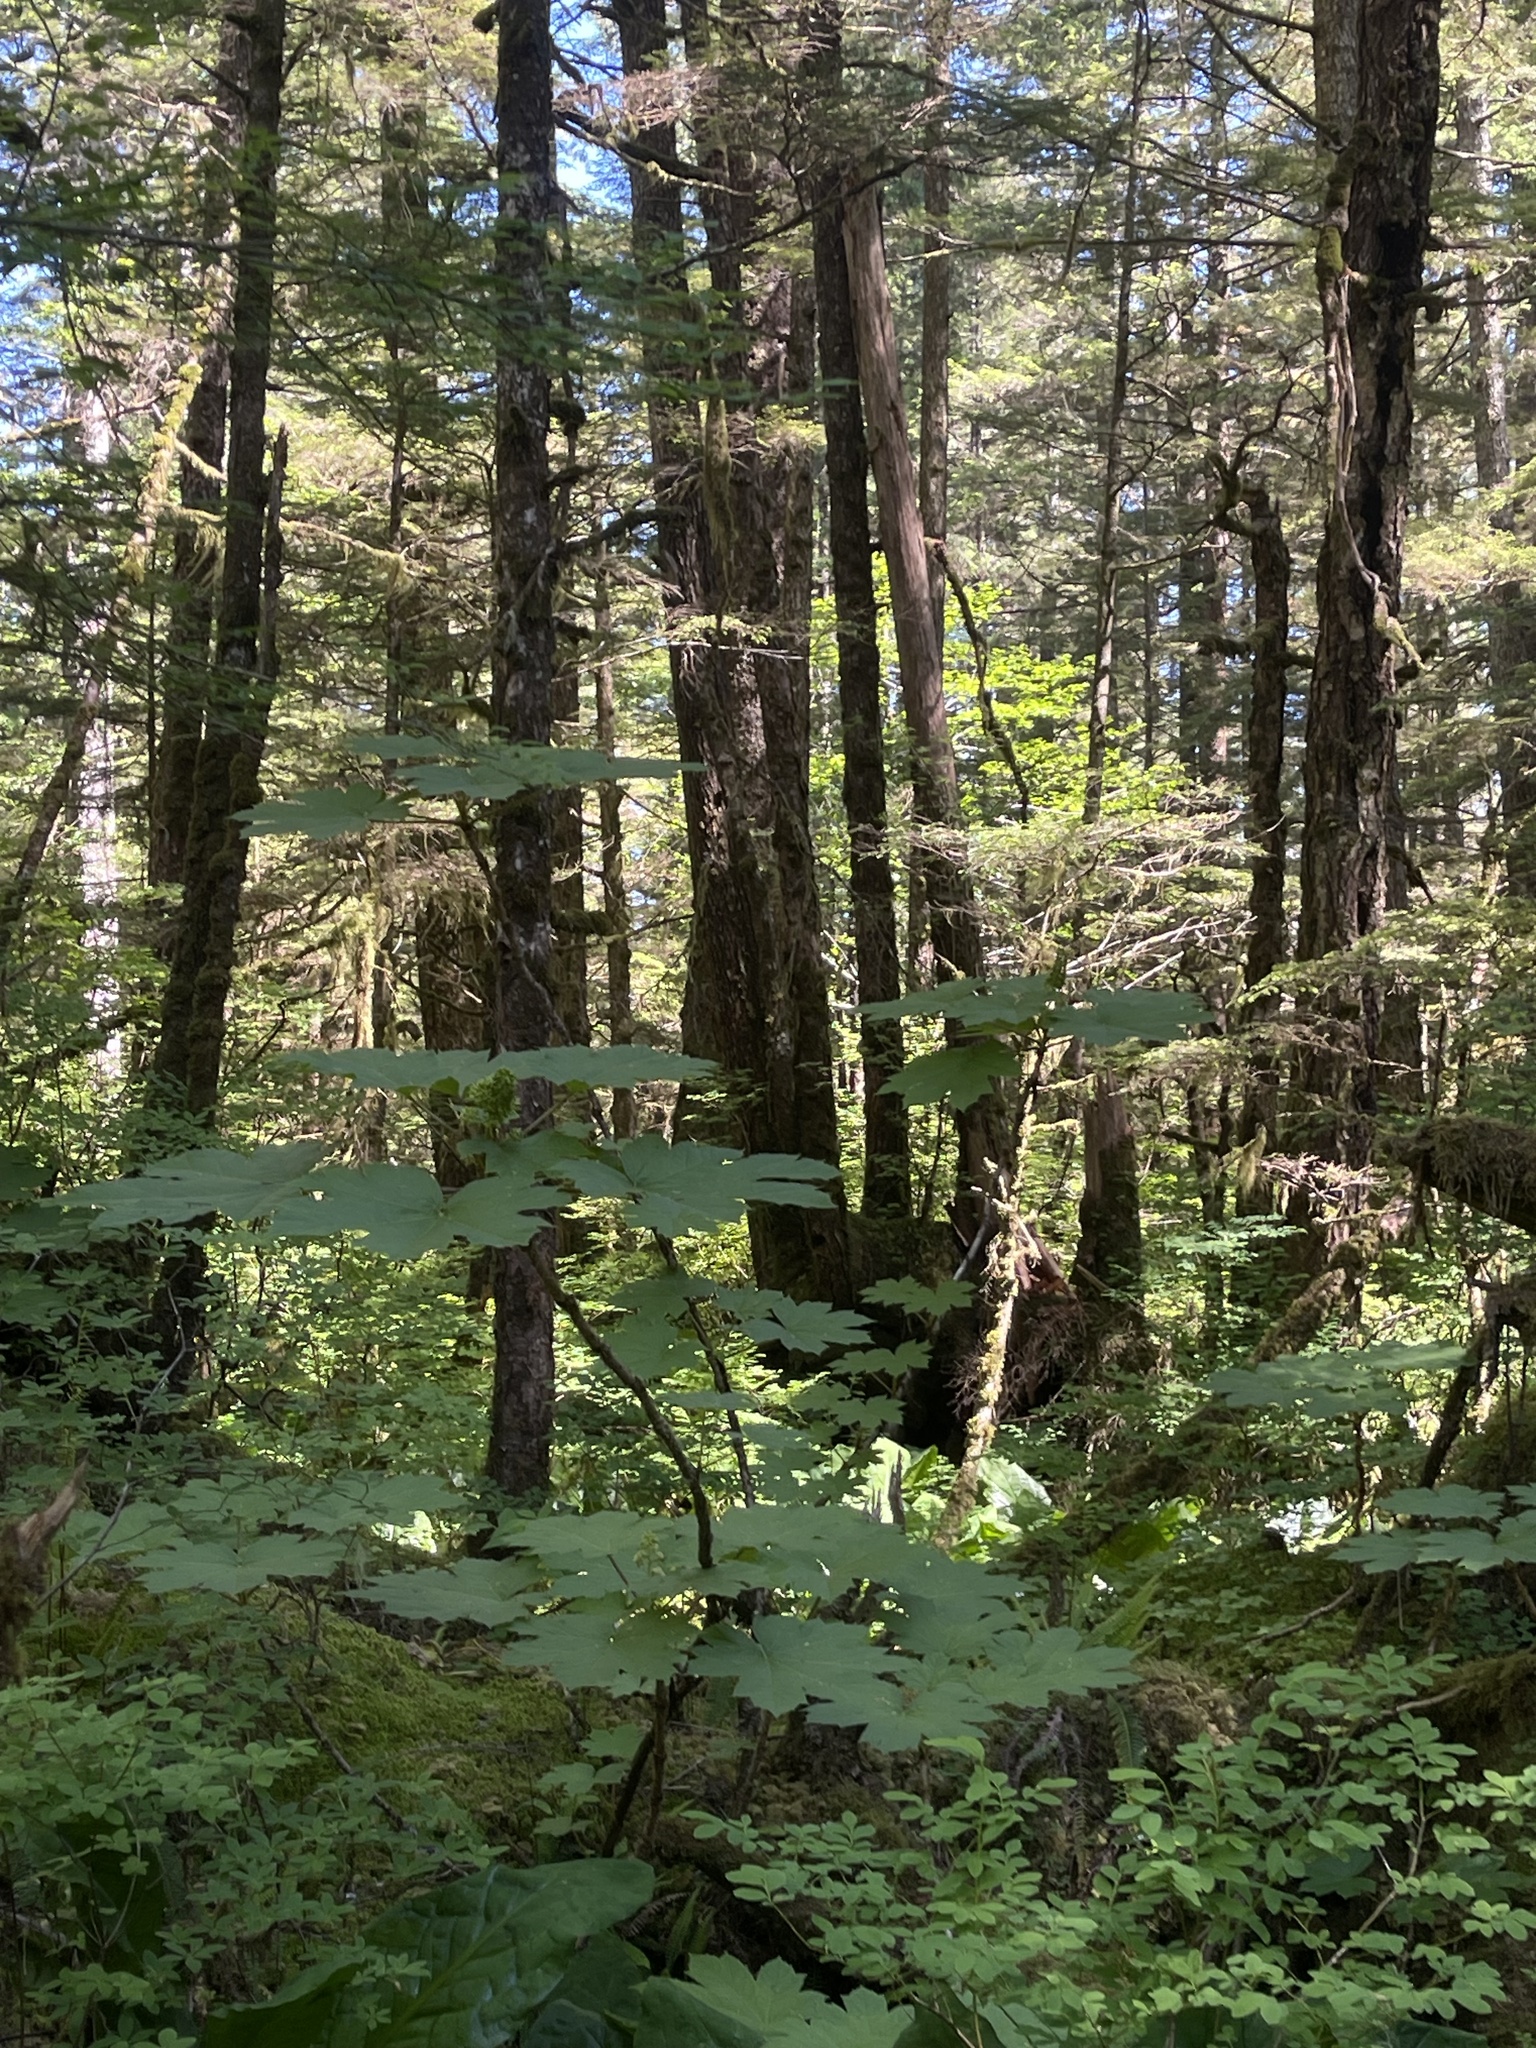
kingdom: Plantae
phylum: Tracheophyta
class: Magnoliopsida
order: Apiales
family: Araliaceae
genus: Oplopanax
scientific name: Oplopanax horridus
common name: Devil's walking-stick
